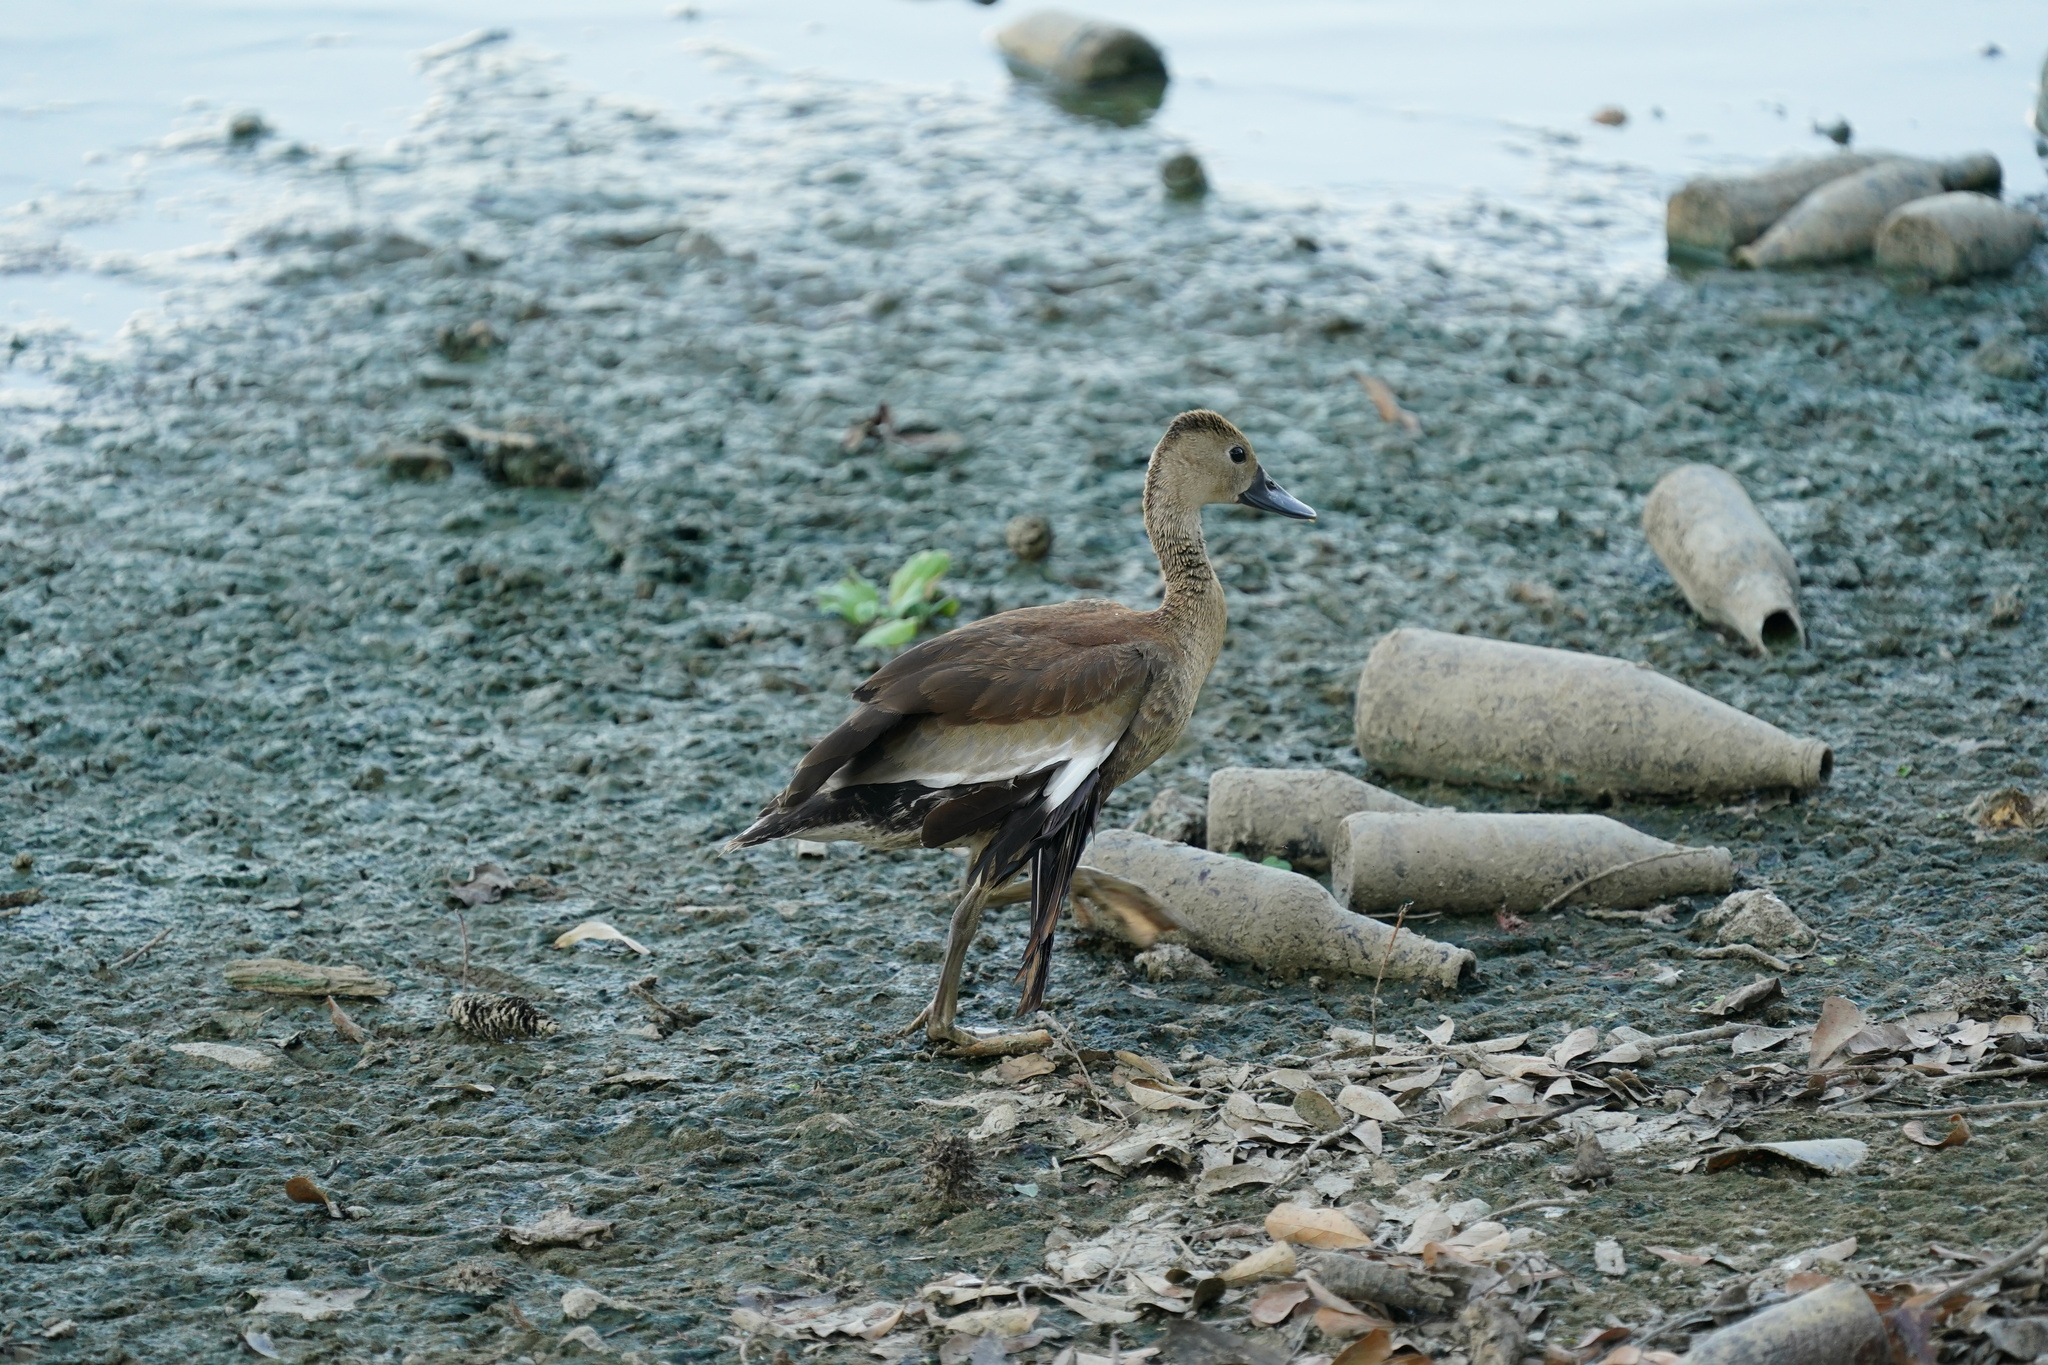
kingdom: Animalia
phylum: Chordata
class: Aves
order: Anseriformes
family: Anatidae
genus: Dendrocygna
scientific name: Dendrocygna autumnalis
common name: Black-bellied whistling duck
